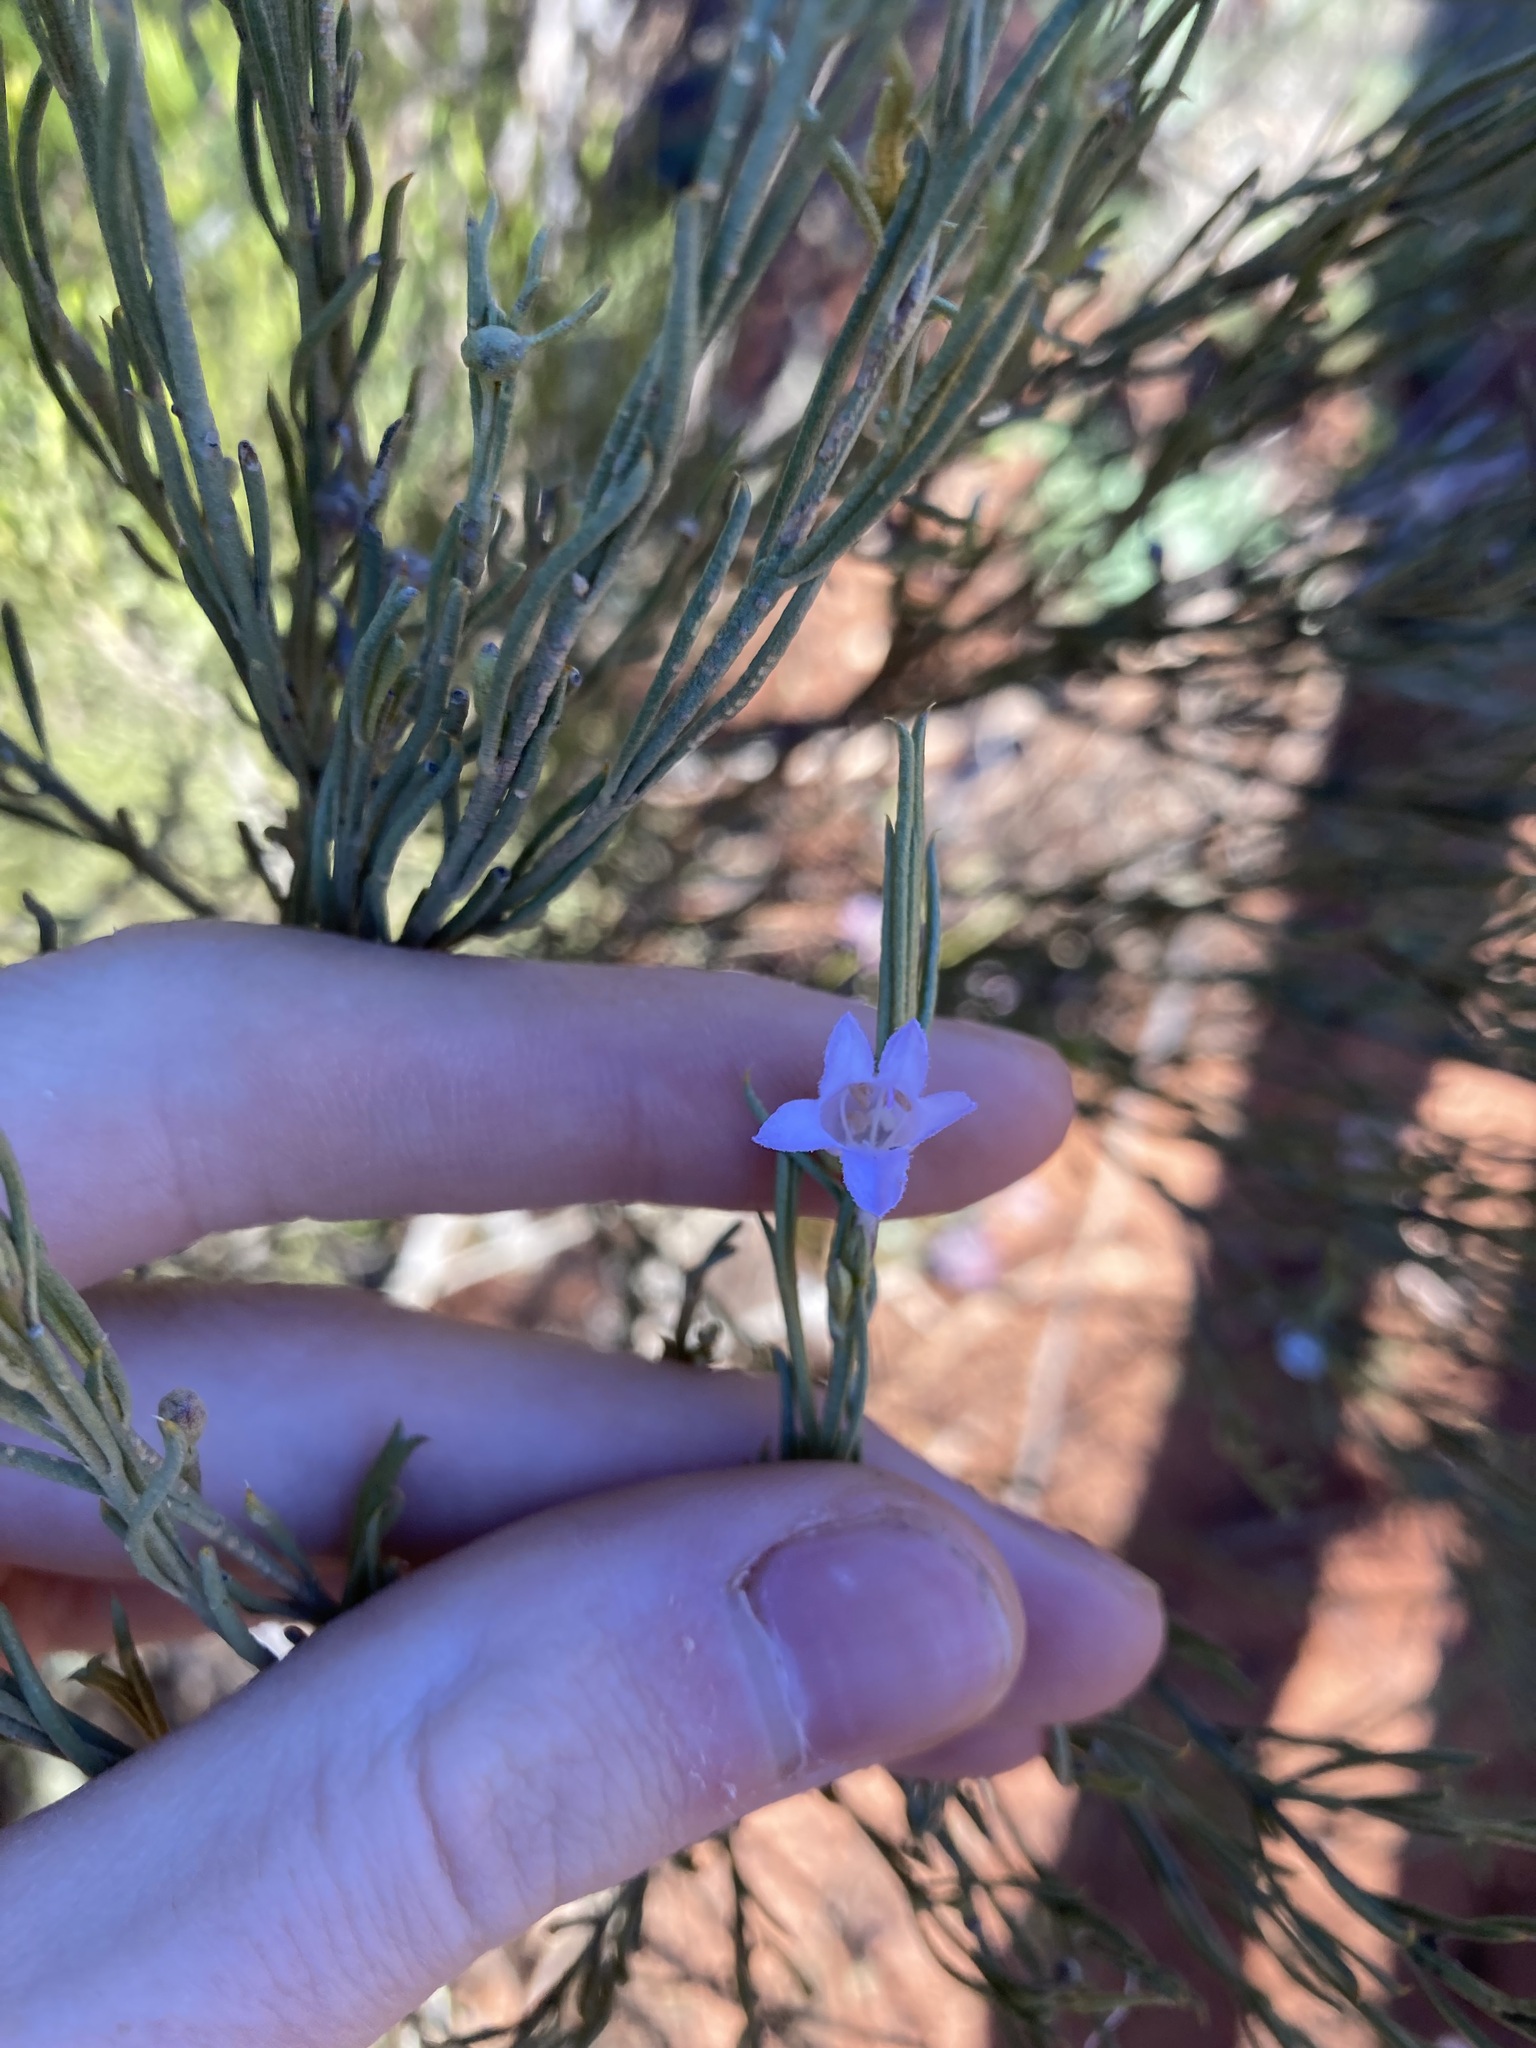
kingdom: Plantae
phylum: Tracheophyta
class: Magnoliopsida
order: Lamiales
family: Scrophulariaceae
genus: Eremophila
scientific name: Eremophila scoparia
